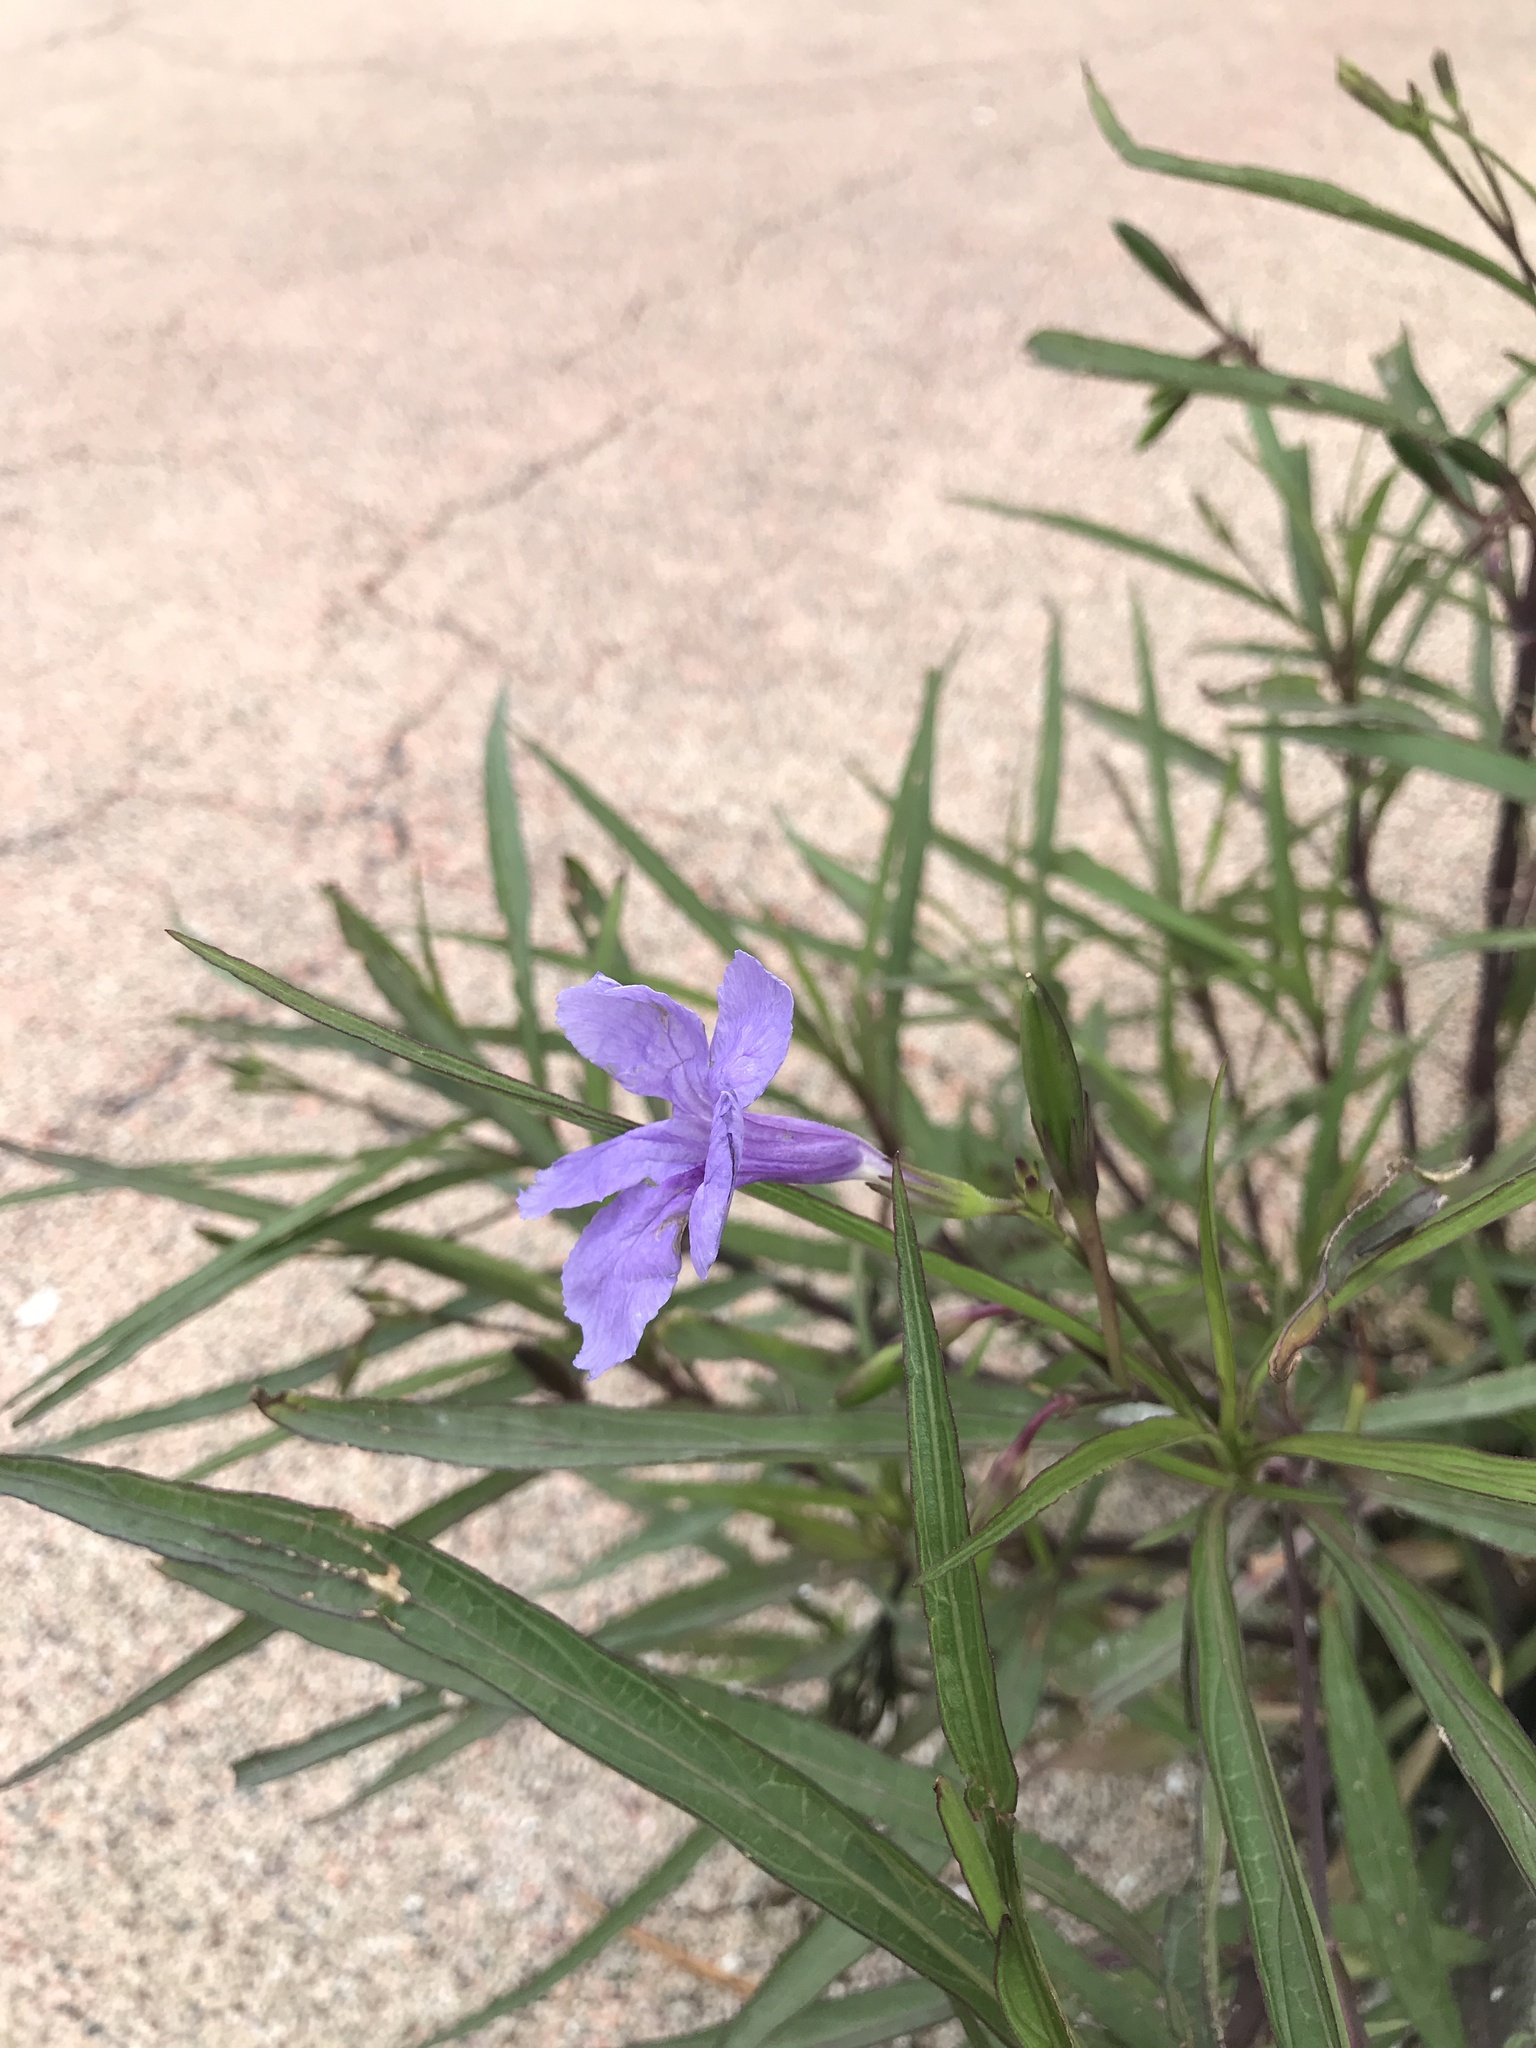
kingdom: Plantae
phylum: Tracheophyta
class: Magnoliopsida
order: Lamiales
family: Acanthaceae
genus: Ruellia
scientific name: Ruellia simplex
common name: Softseed wild petunia
